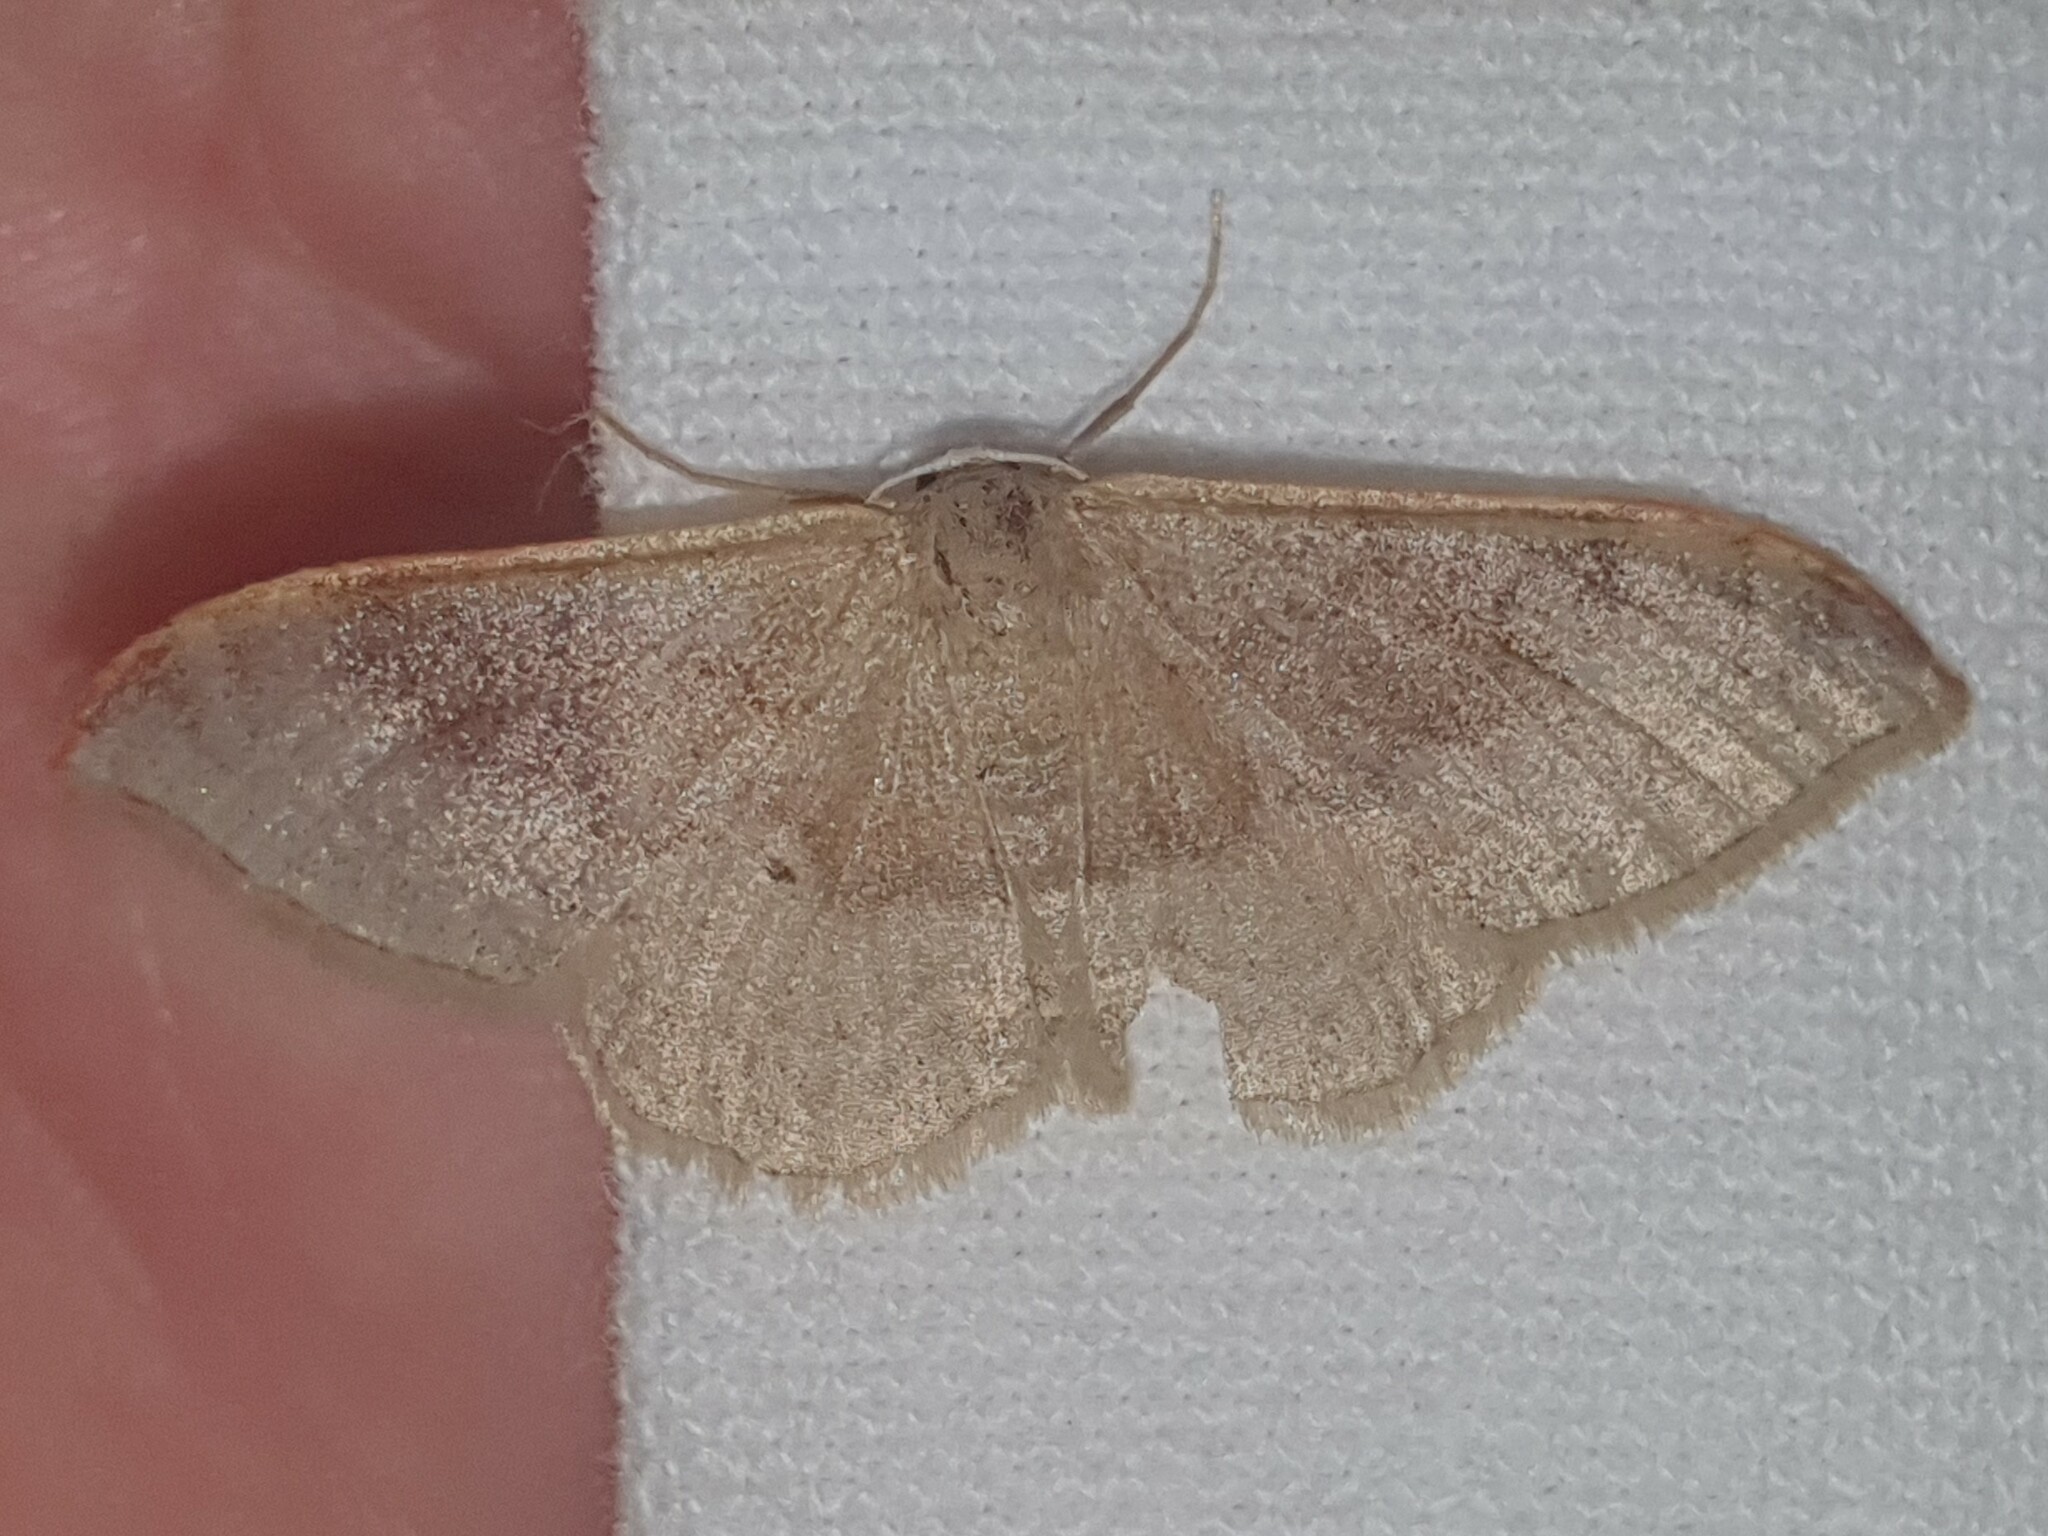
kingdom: Animalia
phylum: Arthropoda
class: Insecta
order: Lepidoptera
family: Geometridae
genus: Idaea
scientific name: Idaea degeneraria
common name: Portland ribbon wave
